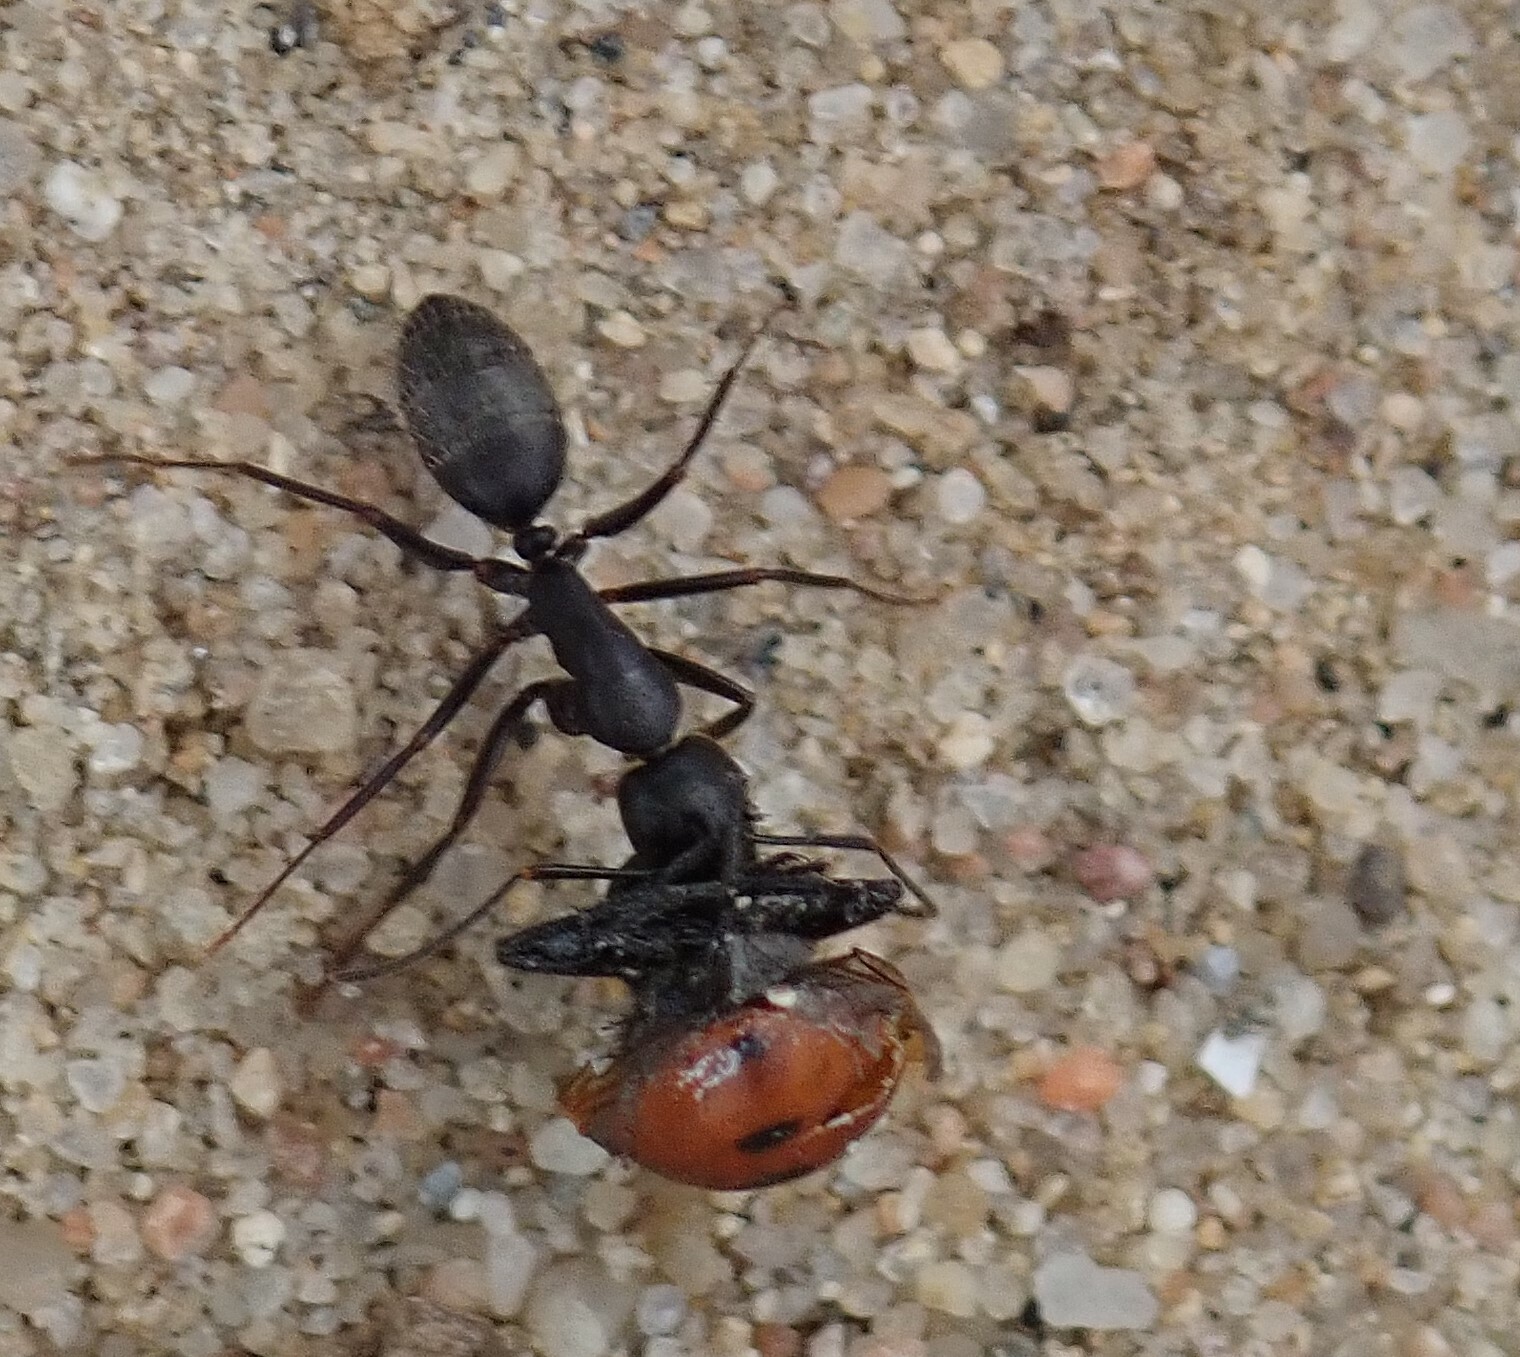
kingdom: Animalia
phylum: Arthropoda
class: Insecta
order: Hymenoptera
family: Formicidae
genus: Camponotus
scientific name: Camponotus pennsylvanicus
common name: Black carpenter ant
